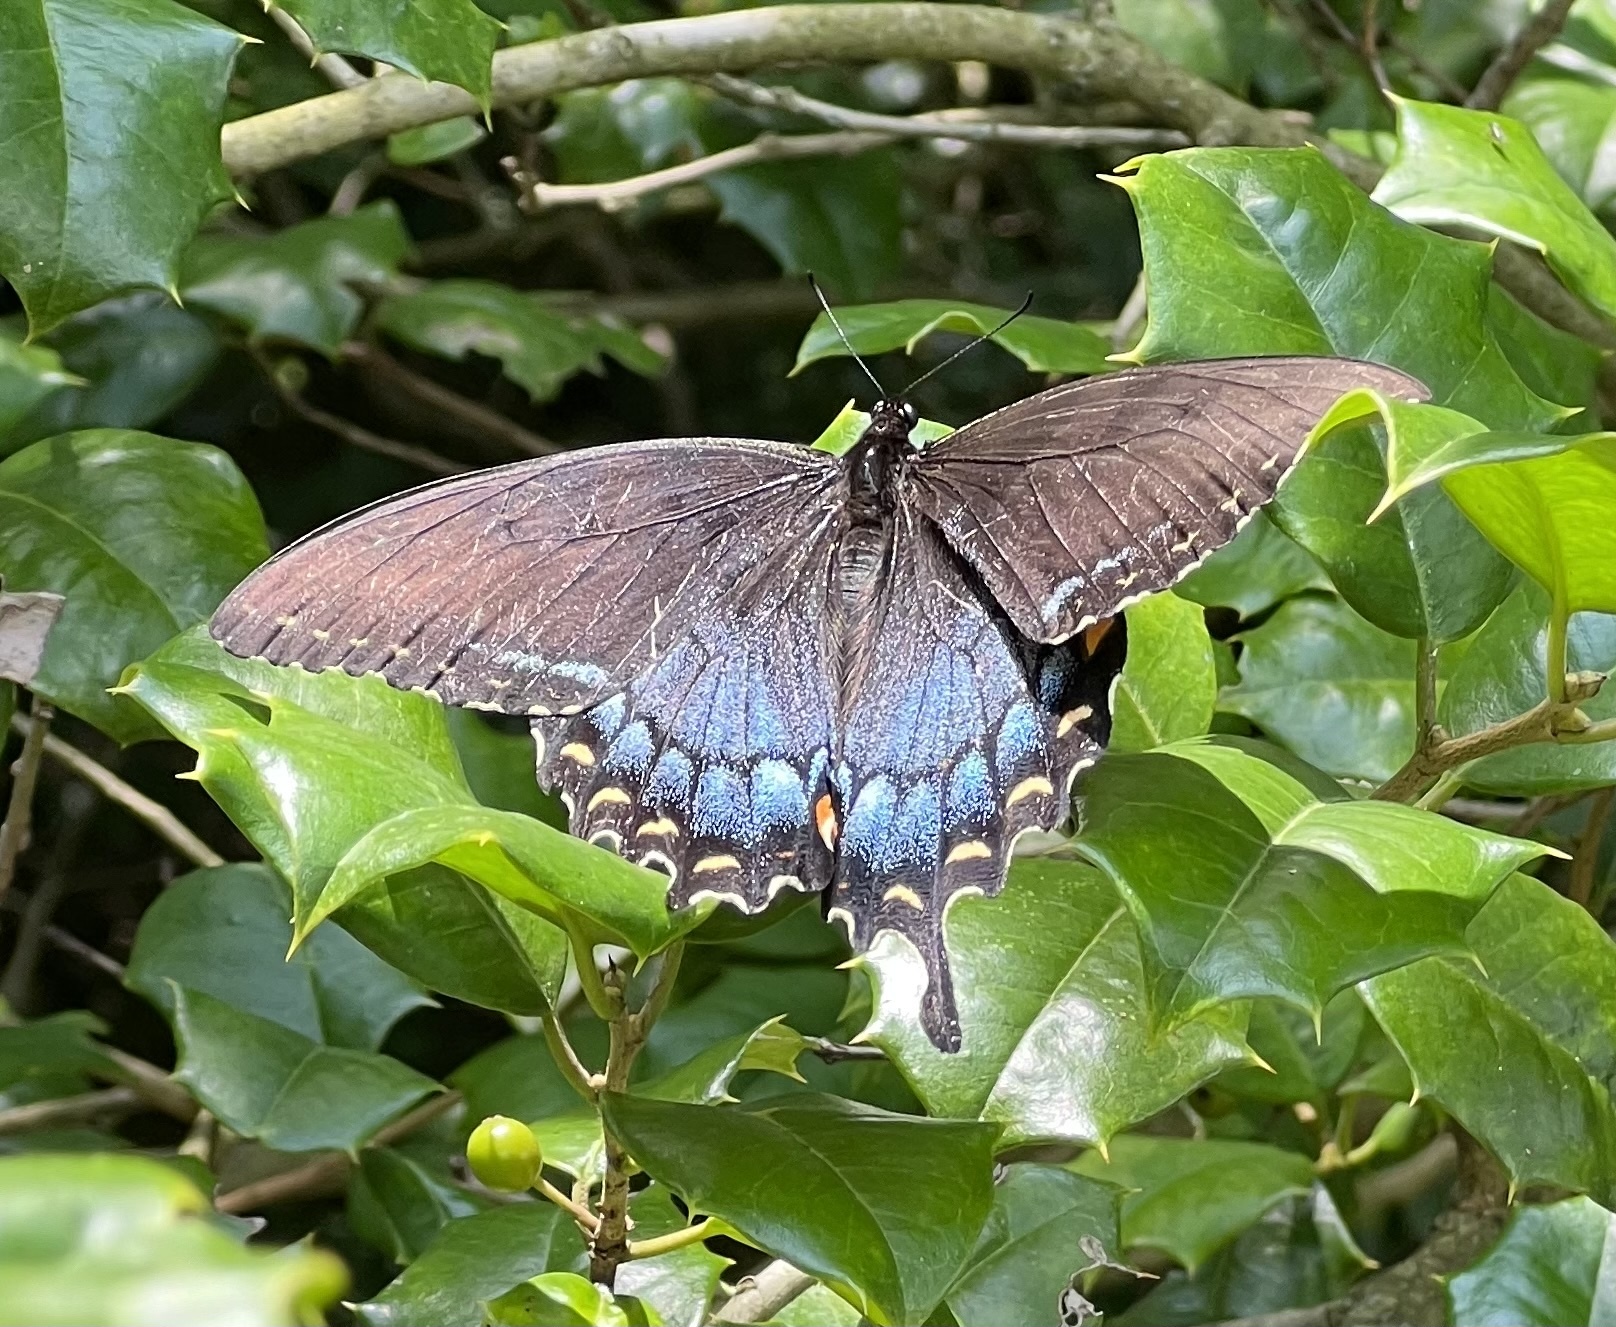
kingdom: Animalia
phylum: Arthropoda
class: Insecta
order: Lepidoptera
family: Papilionidae
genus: Papilio
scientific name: Papilio glaucus
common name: Tiger swallowtail
